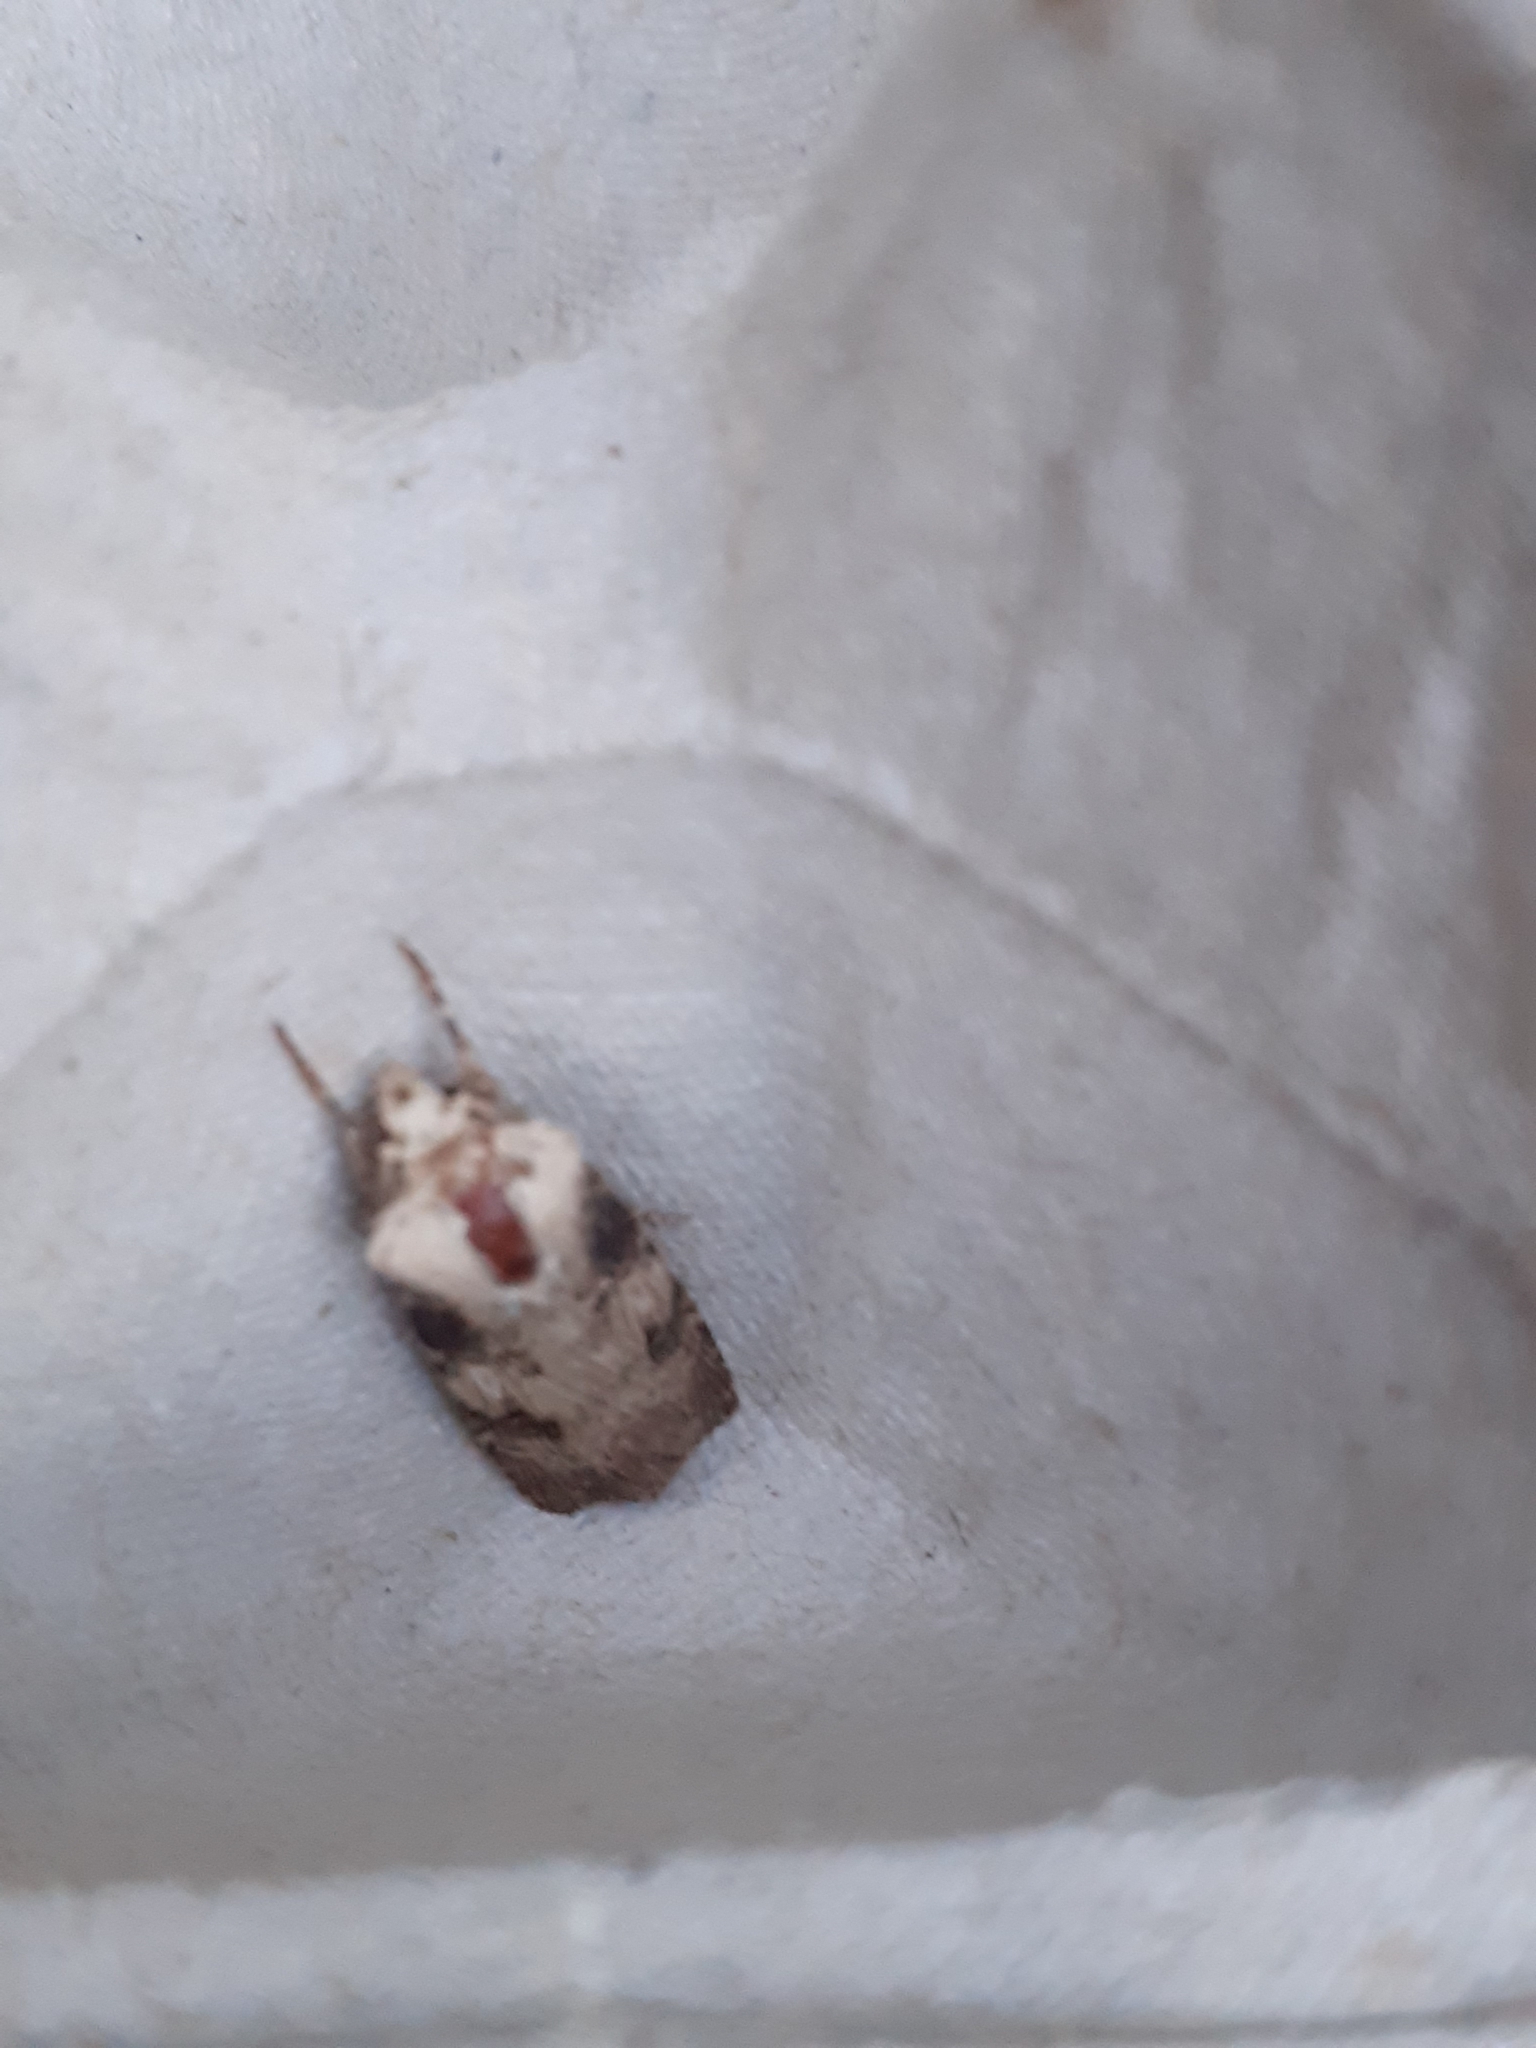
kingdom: Animalia
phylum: Arthropoda
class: Insecta
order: Lepidoptera
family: Noctuidae
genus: Agrotis
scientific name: Agrotis puta
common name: Shuttle-shaped dart
